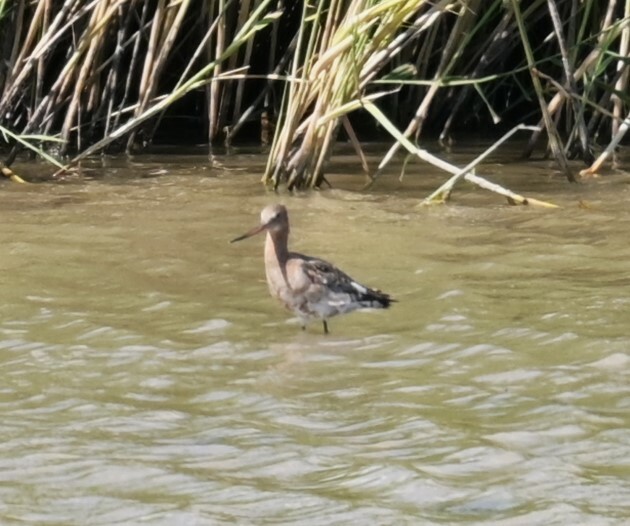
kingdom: Animalia
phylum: Chordata
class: Aves
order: Charadriiformes
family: Scolopacidae
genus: Limosa
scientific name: Limosa limosa
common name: Black-tailed godwit
